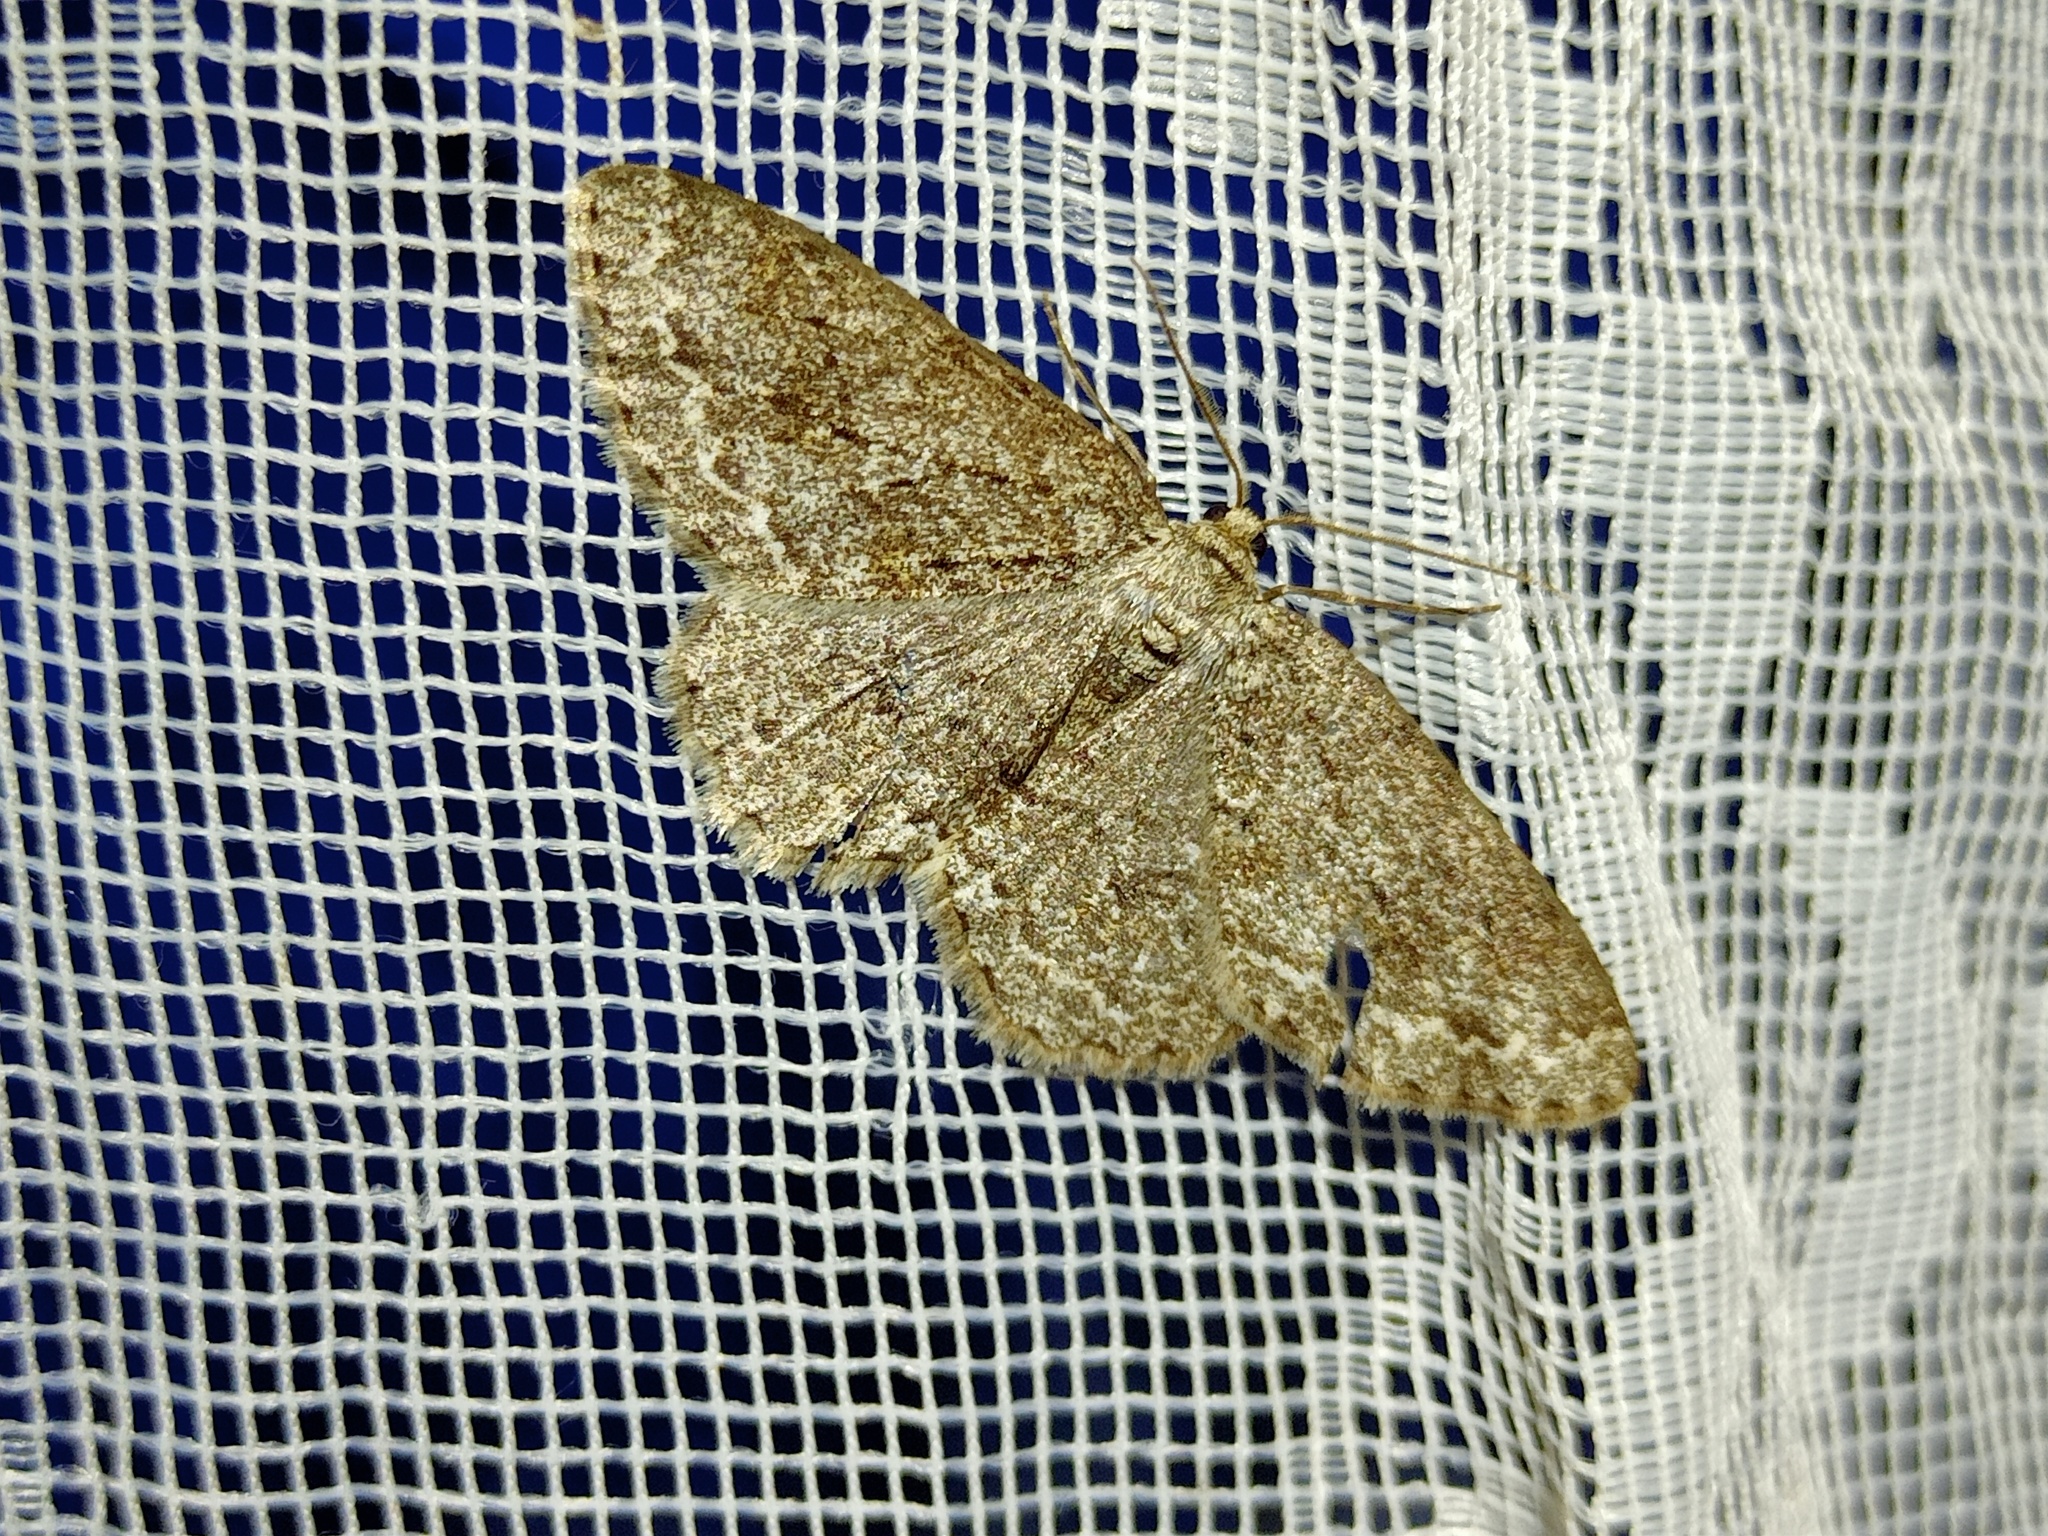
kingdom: Animalia
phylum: Arthropoda
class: Insecta
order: Lepidoptera
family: Geometridae
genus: Ectropis
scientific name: Ectropis crepuscularia
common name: Engrailed
